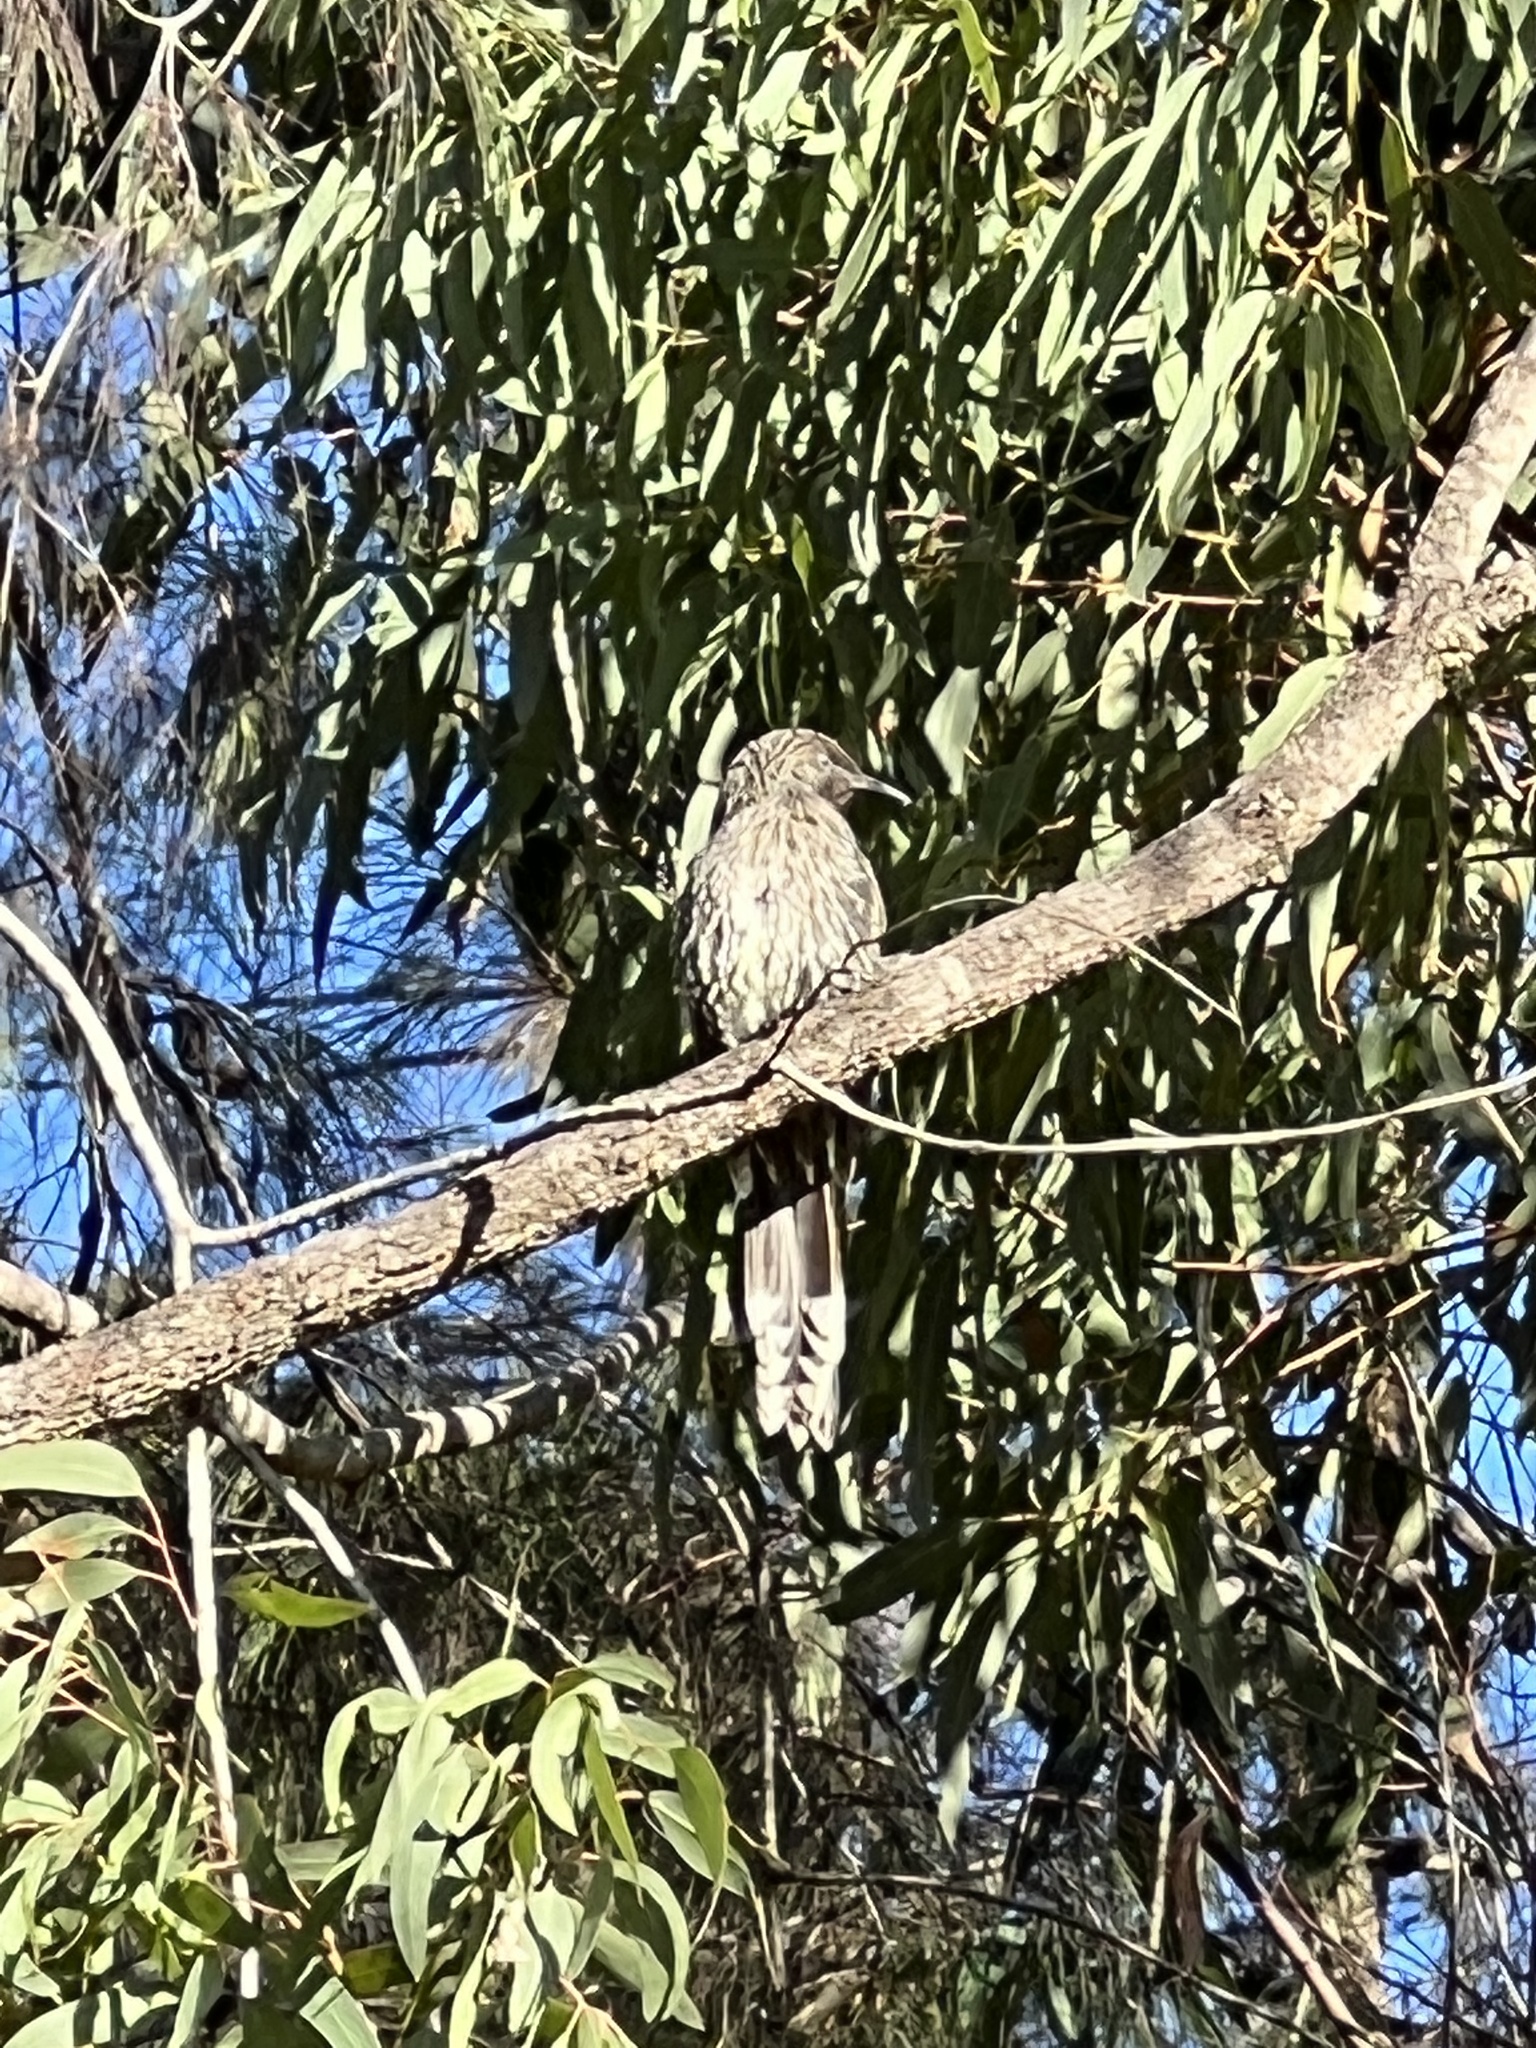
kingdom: Animalia
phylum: Chordata
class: Aves
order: Passeriformes
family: Meliphagidae
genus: Anthochaera
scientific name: Anthochaera chrysoptera
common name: Little wattlebird
